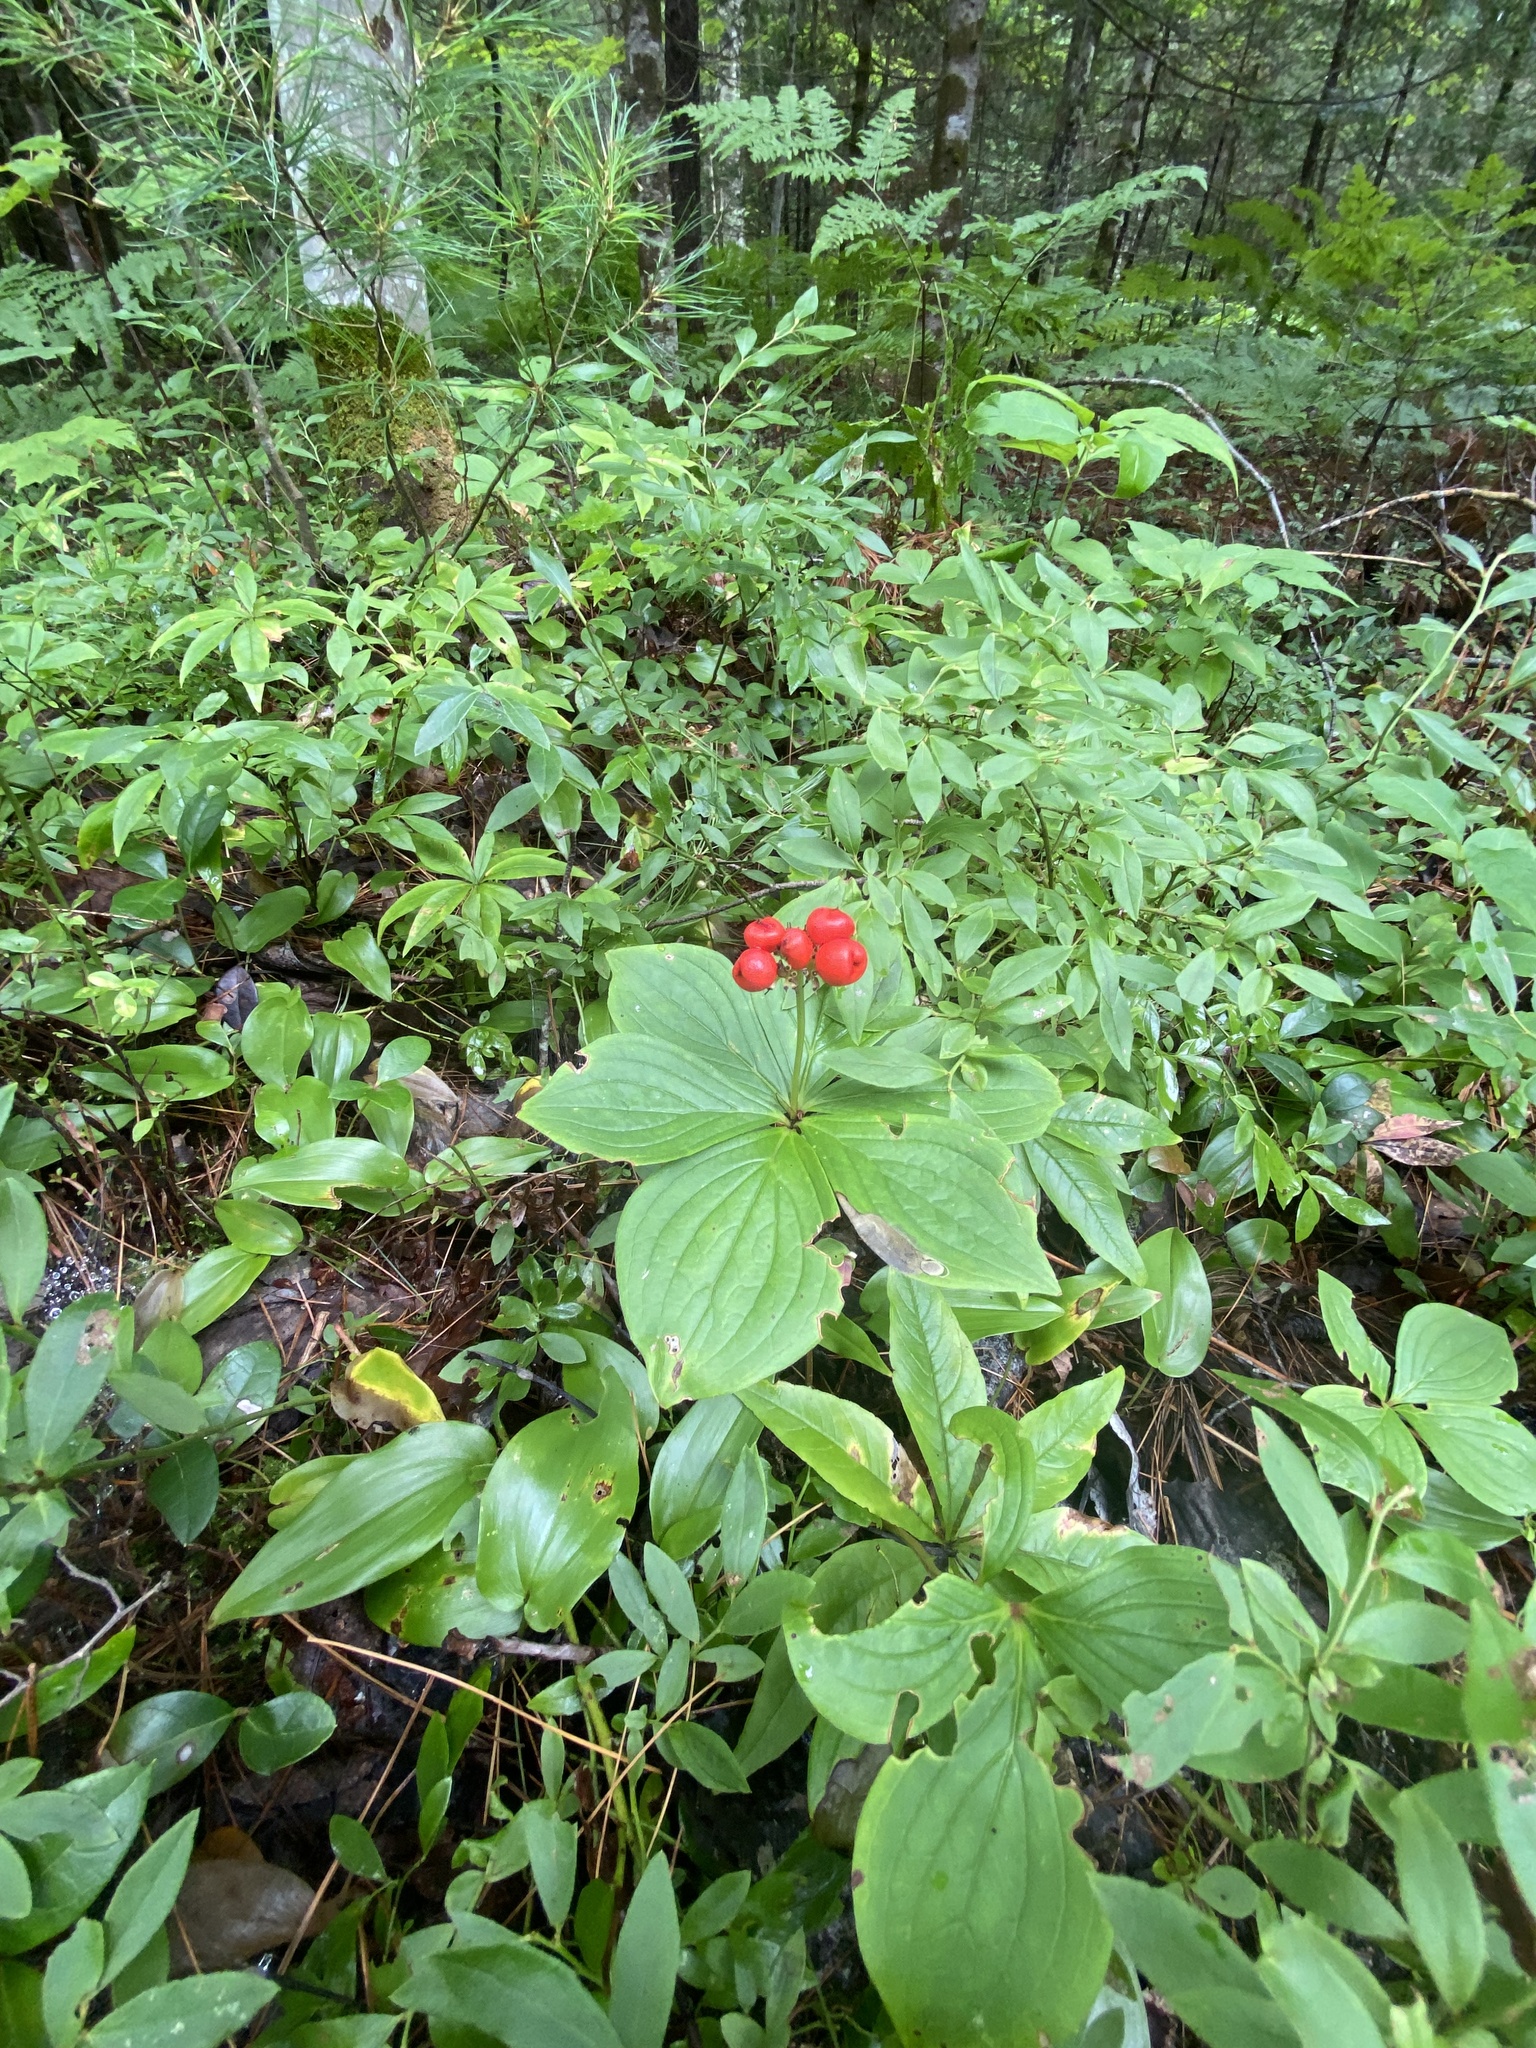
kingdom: Plantae
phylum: Tracheophyta
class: Magnoliopsida
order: Cornales
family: Cornaceae
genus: Cornus
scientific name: Cornus canadensis
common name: Creeping dogwood
